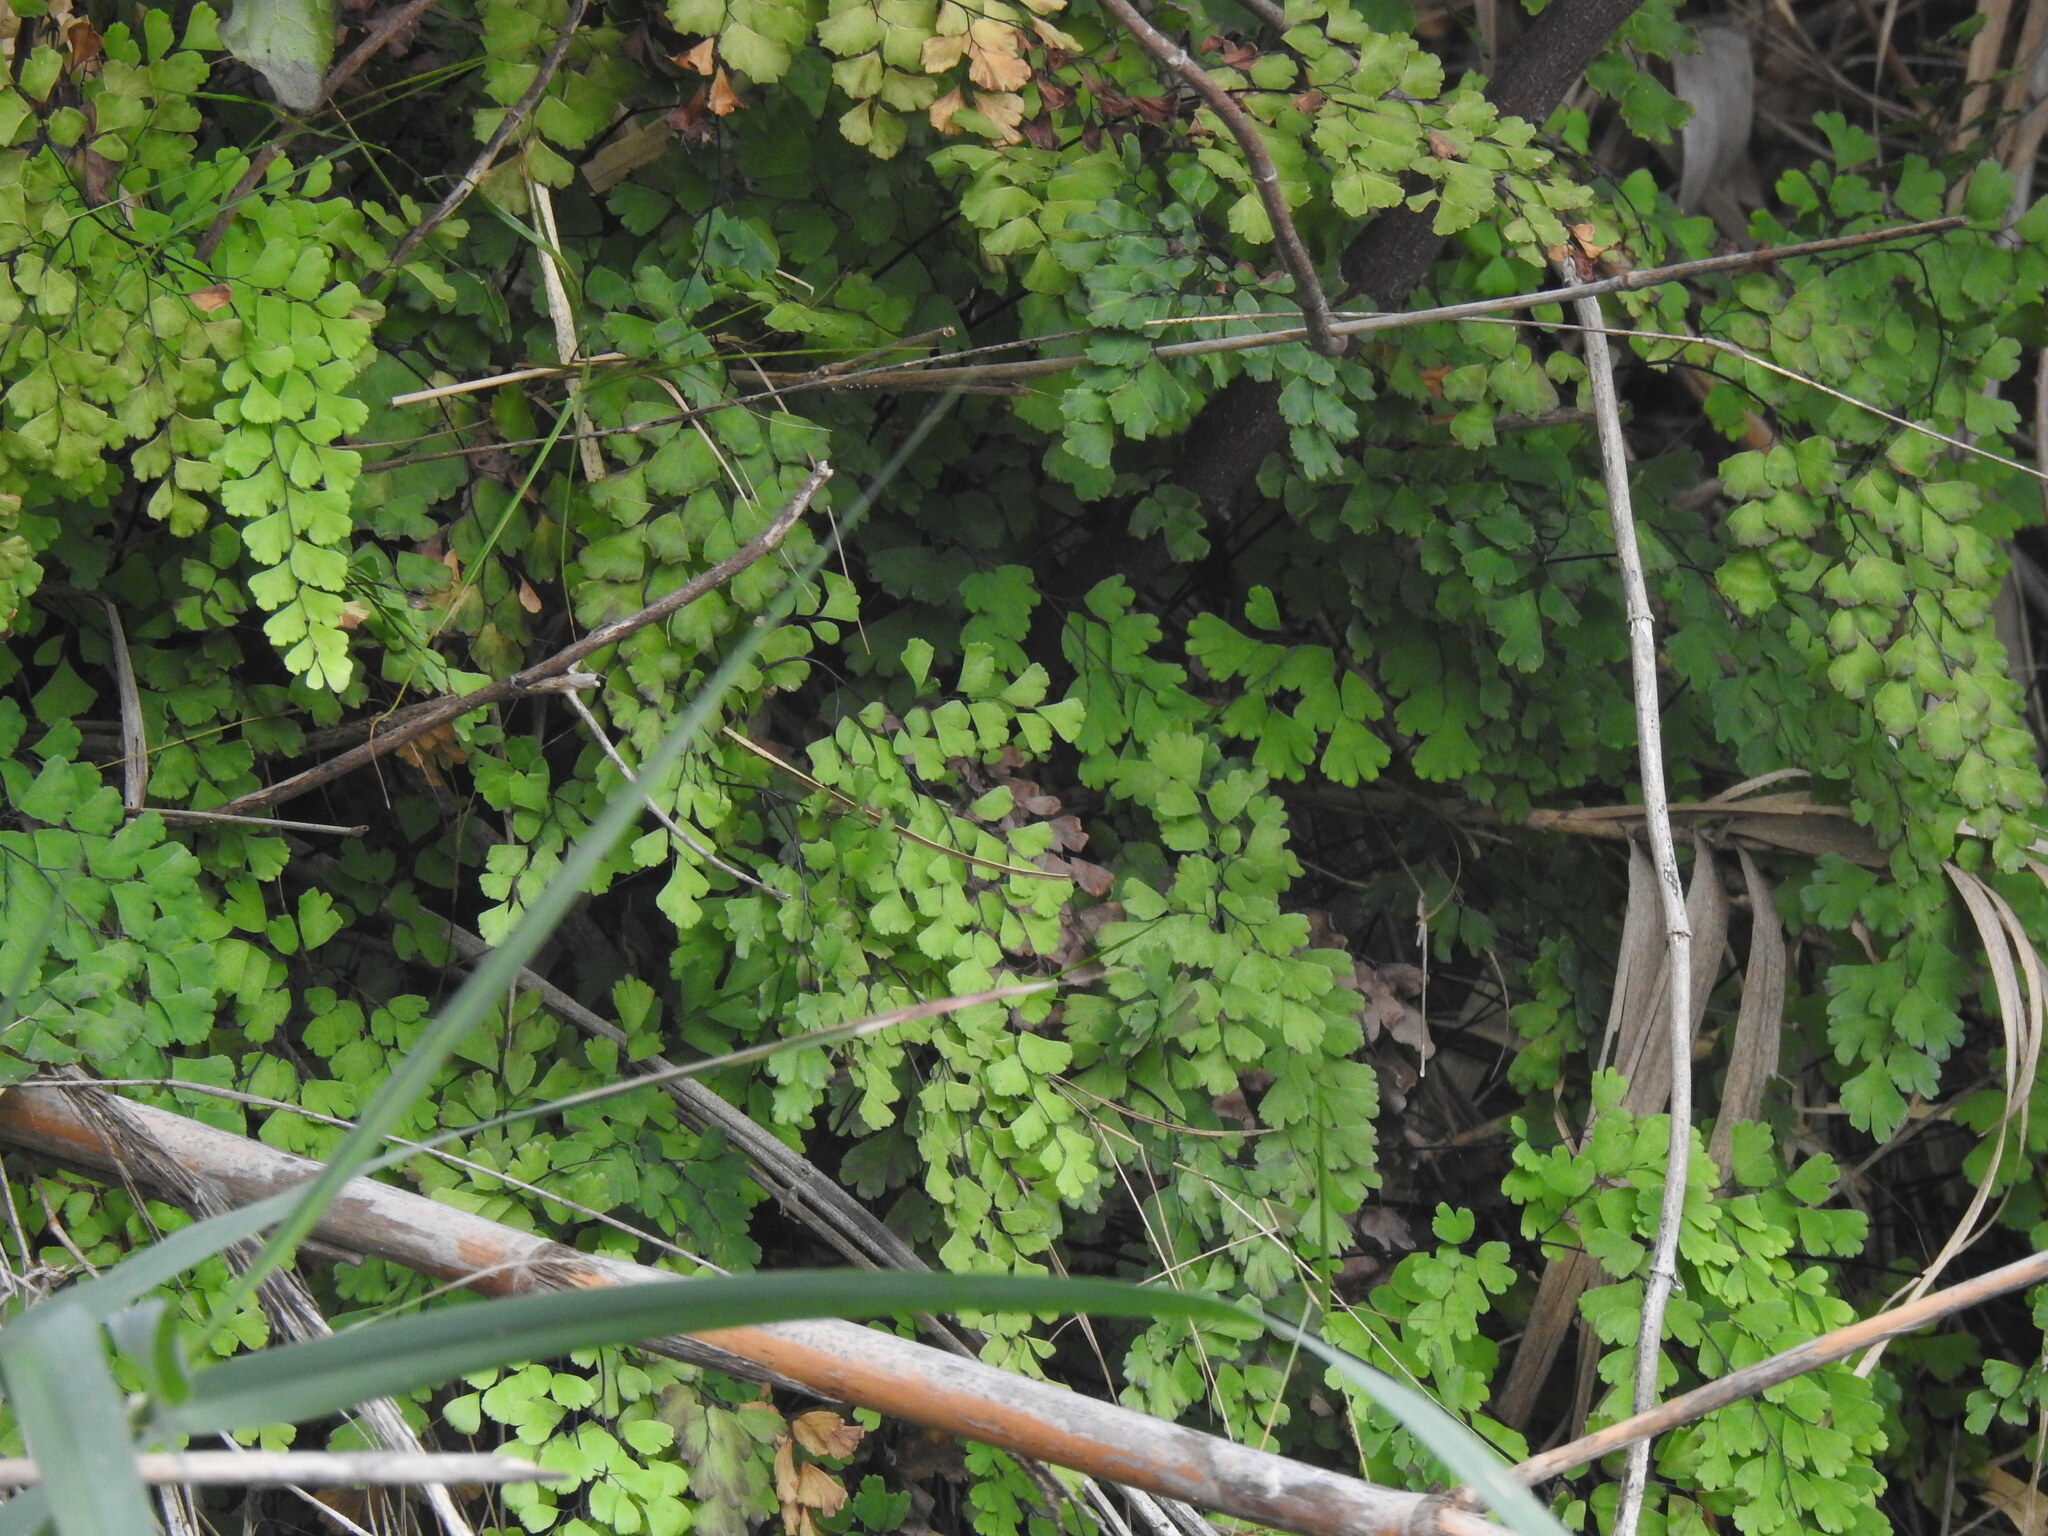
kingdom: Plantae
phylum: Tracheophyta
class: Polypodiopsida
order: Polypodiales
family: Pteridaceae
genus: Adiantum
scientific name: Adiantum capillus-veneris
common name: Maidenhair fern
